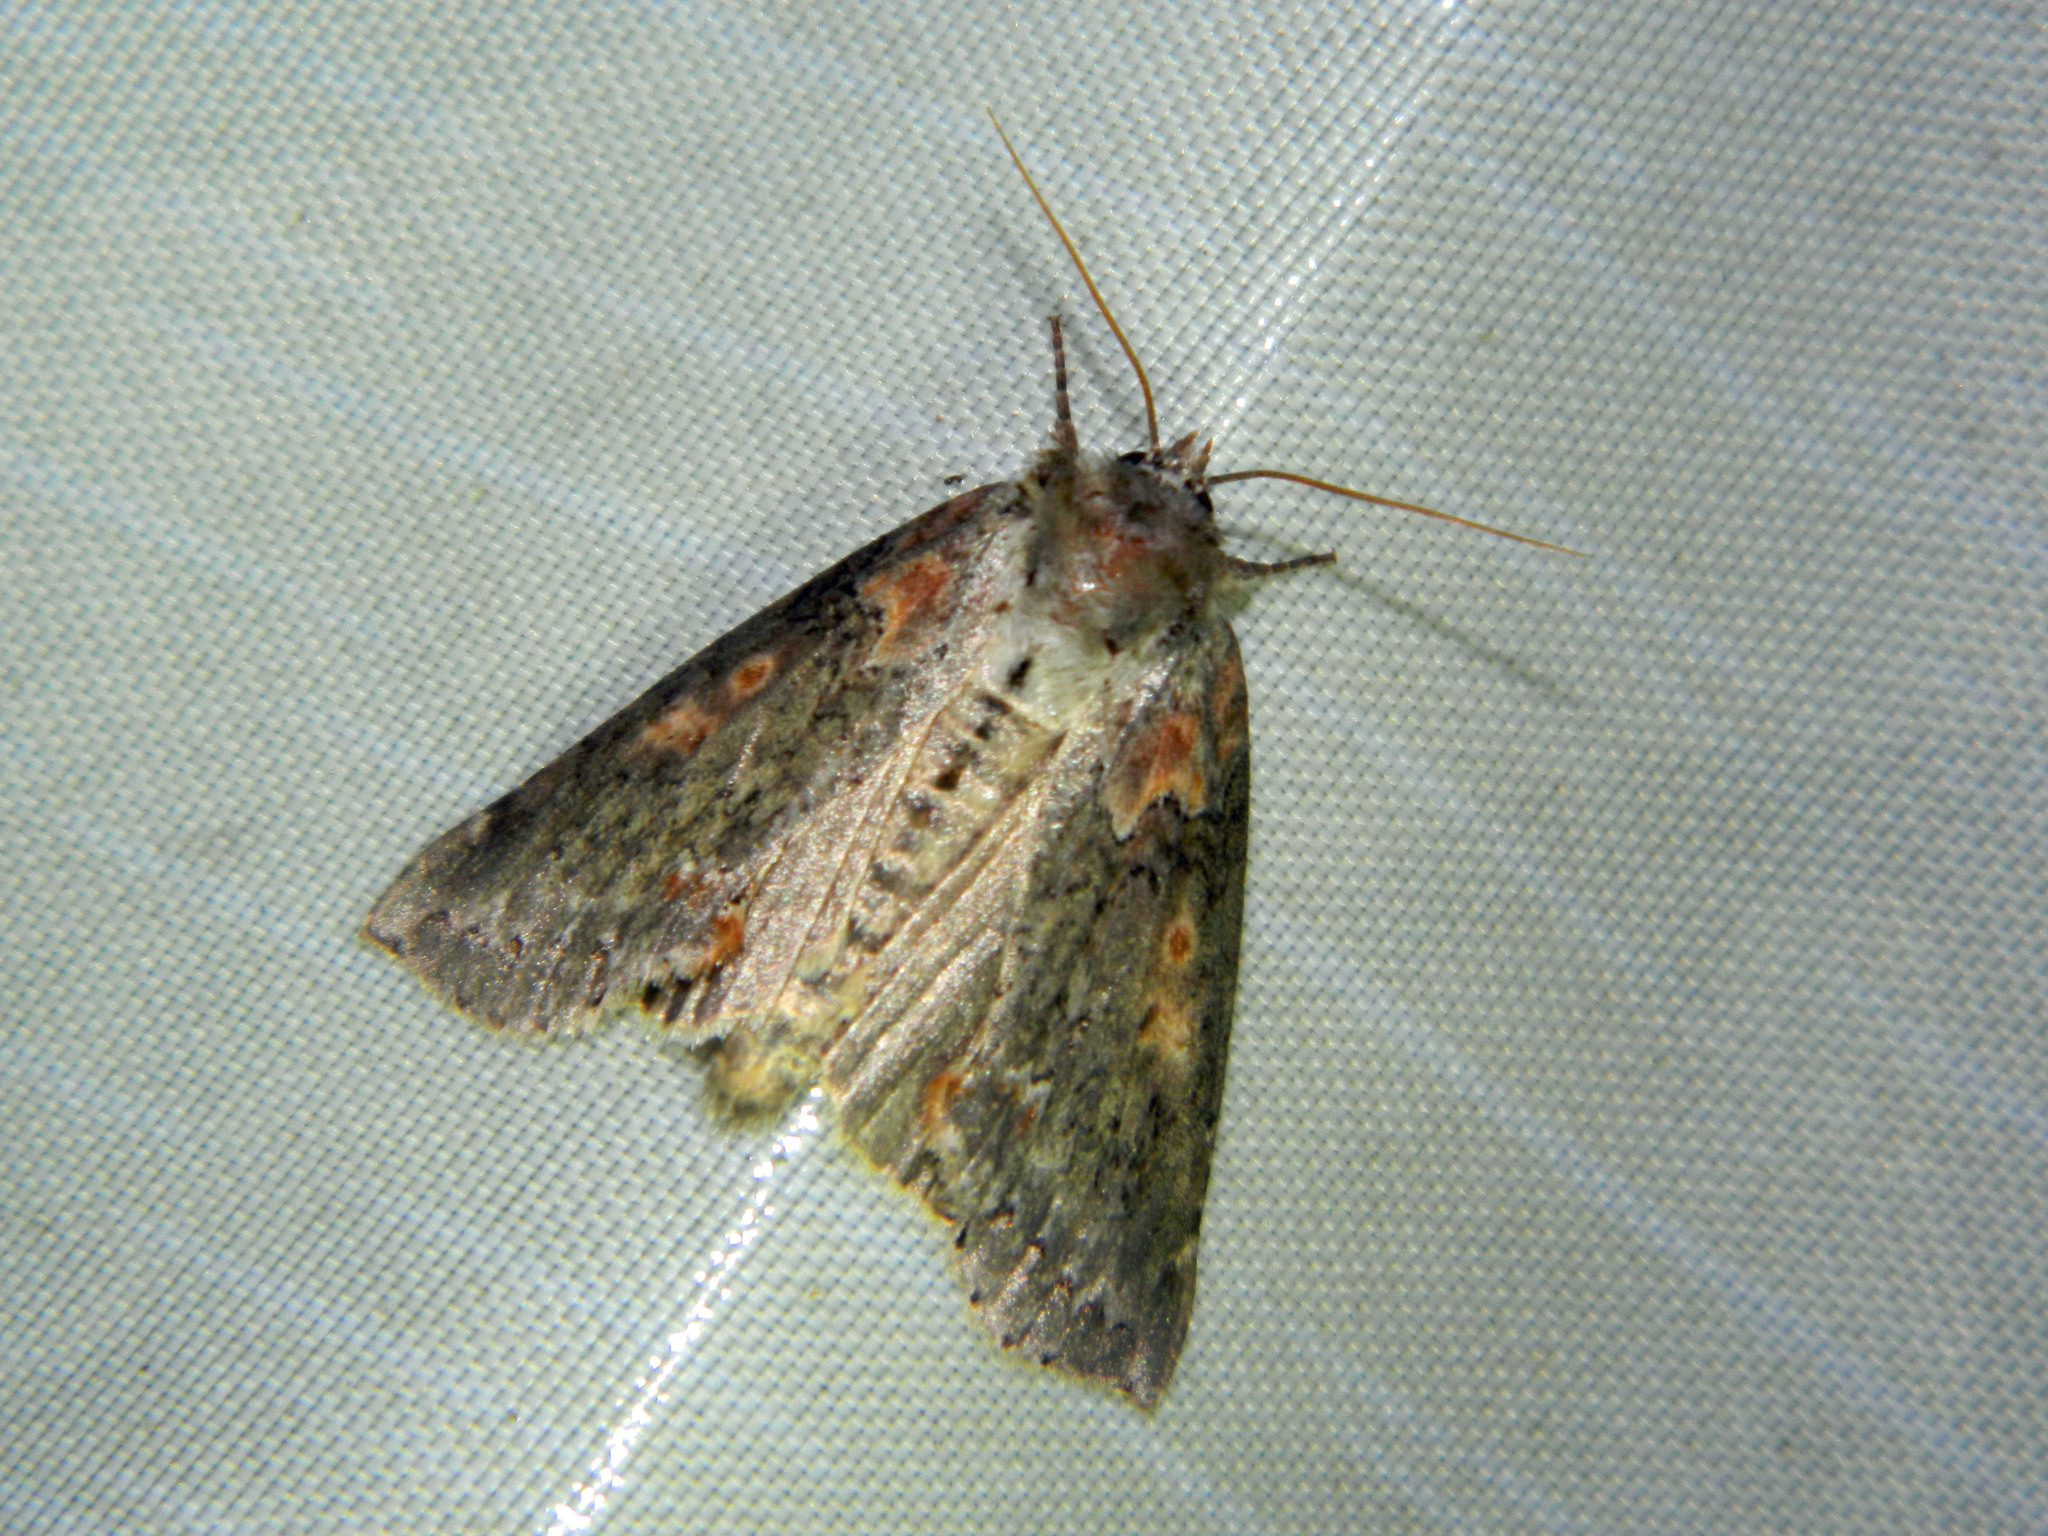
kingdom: Animalia
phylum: Arthropoda
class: Insecta
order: Lepidoptera
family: Drepanidae
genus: Pseudothyatira
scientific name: Pseudothyatira cymatophoroides
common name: Tufted thyatirid moth
